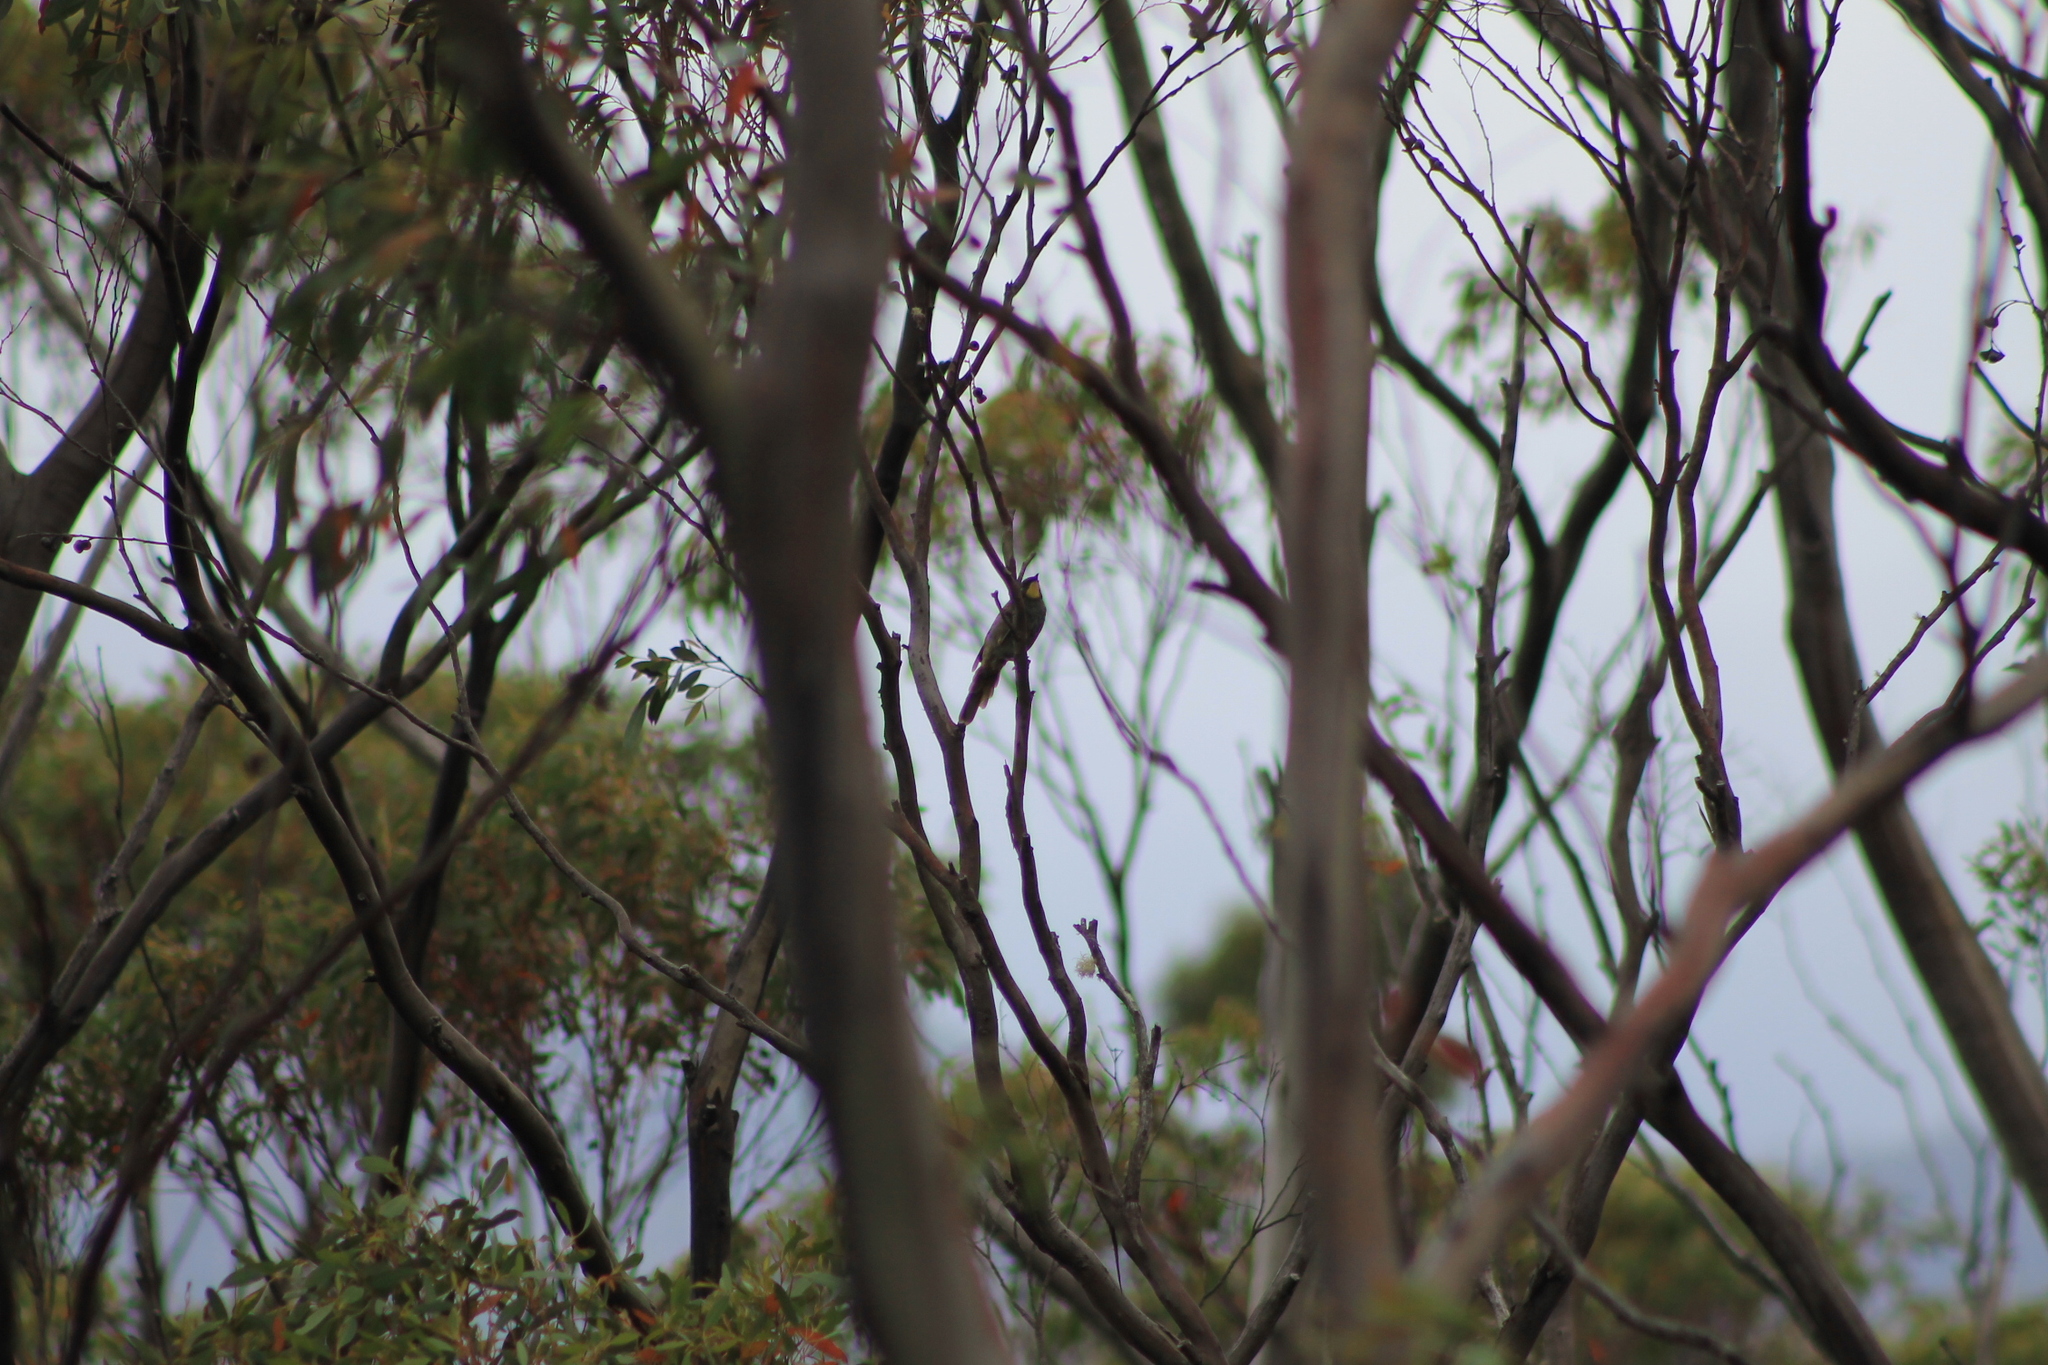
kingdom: Animalia
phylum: Chordata
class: Aves
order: Passeriformes
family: Meliphagidae
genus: Nesoptilotis
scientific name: Nesoptilotis flavicollis
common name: Yellow-throated honeyeater
